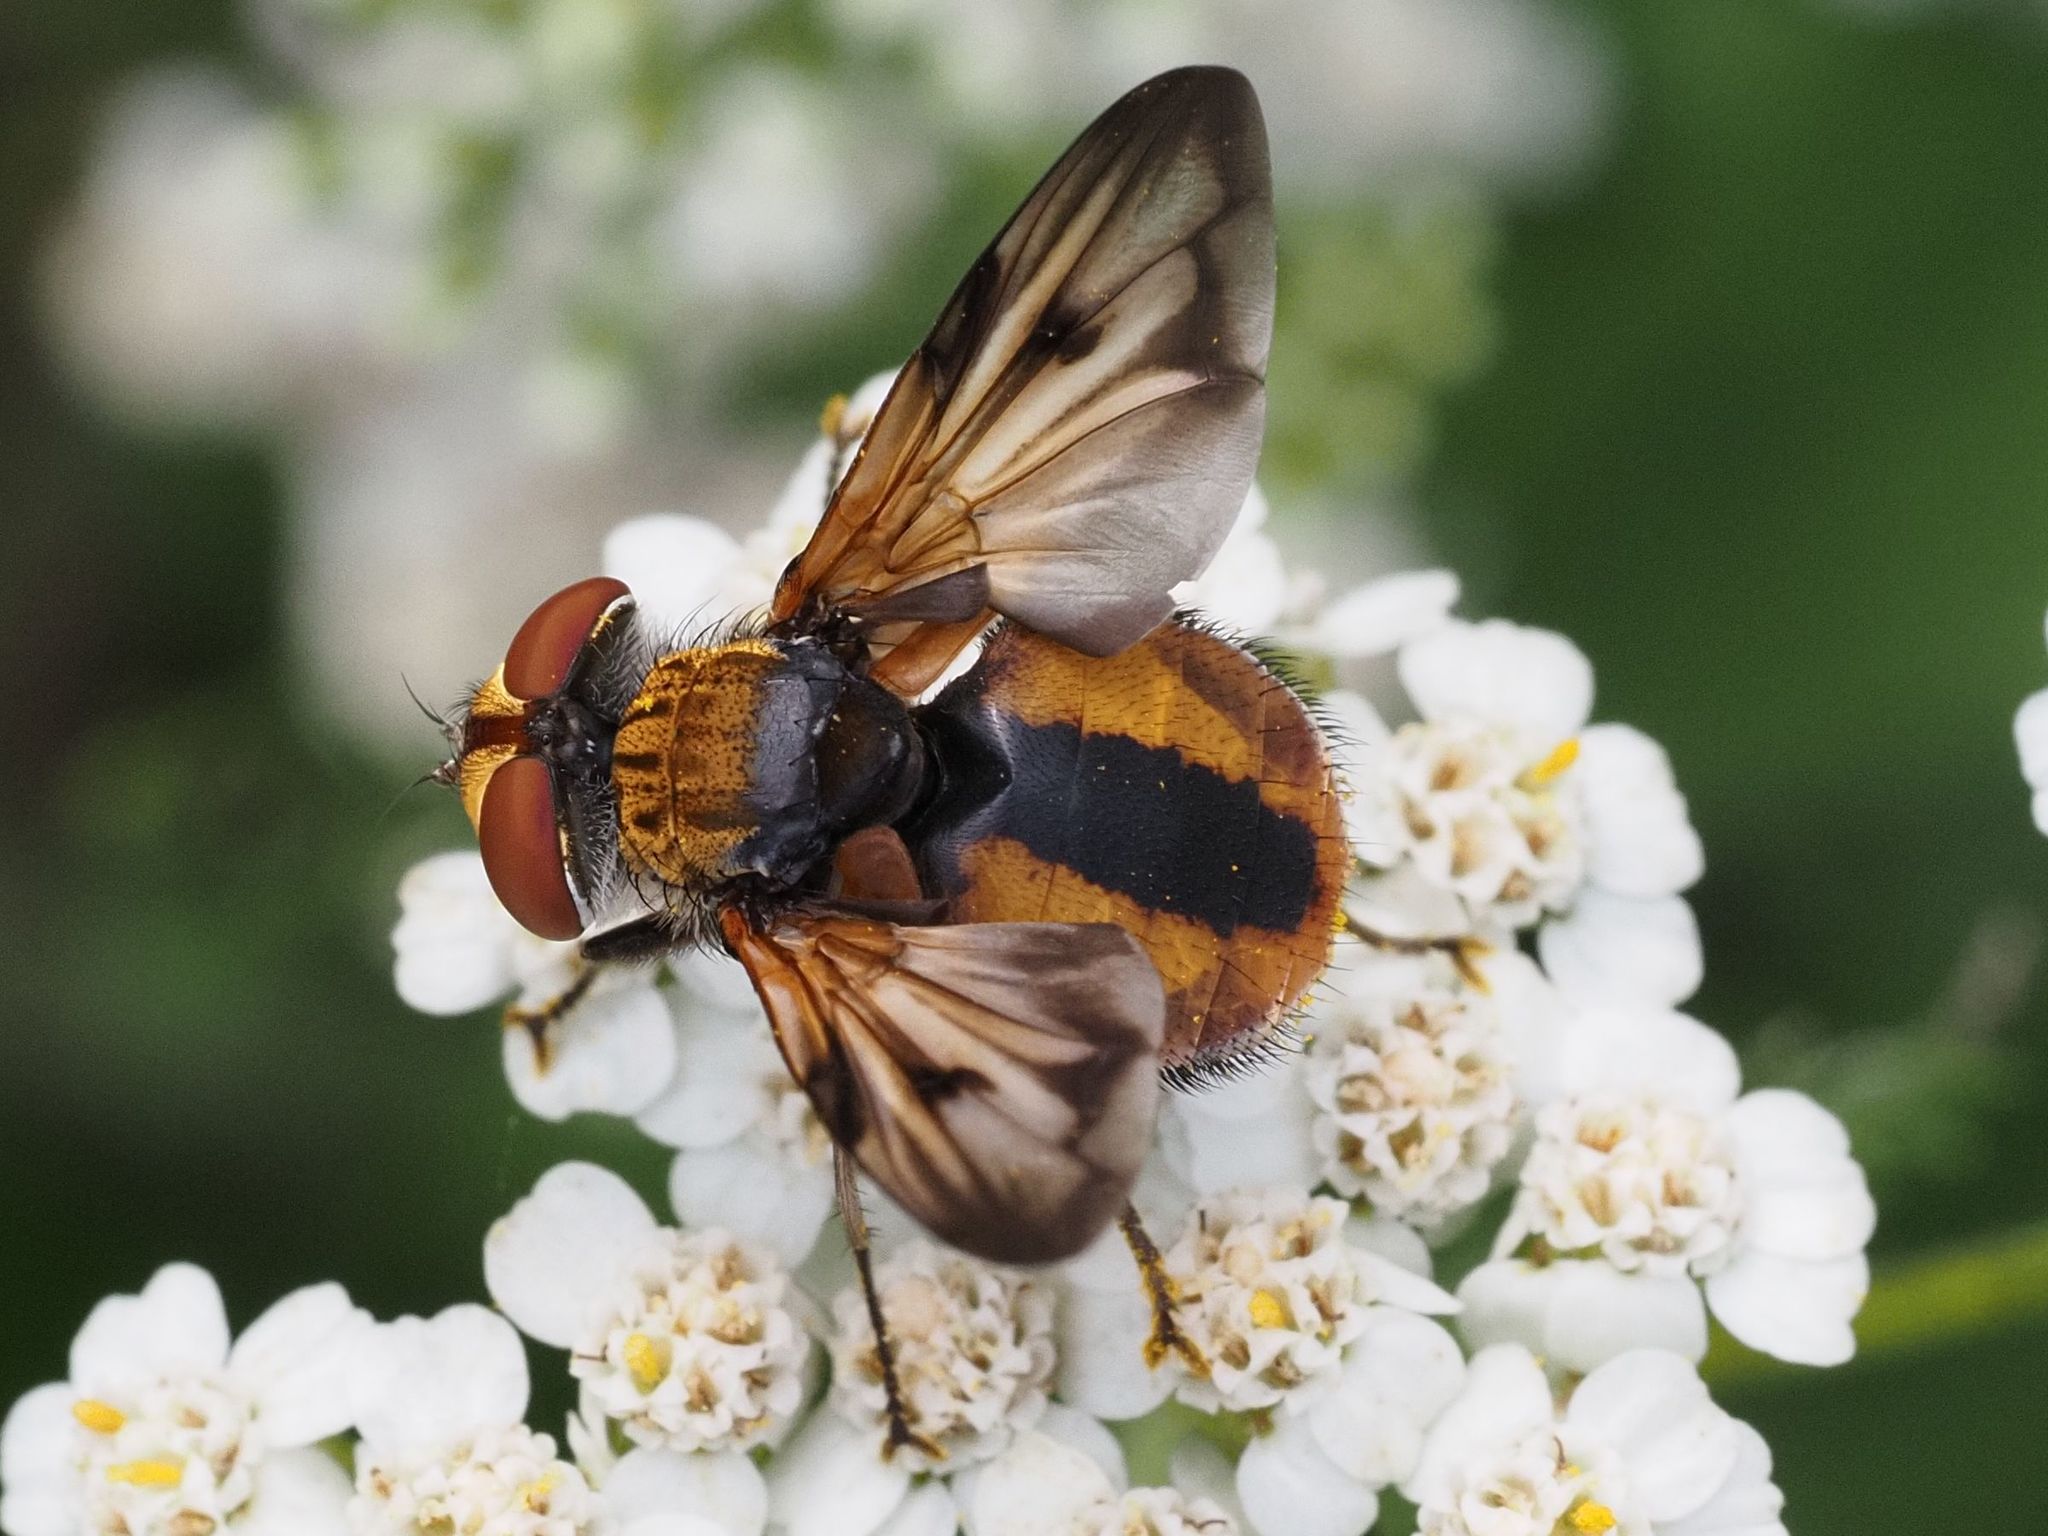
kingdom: Animalia
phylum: Arthropoda
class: Insecta
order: Diptera
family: Tachinidae
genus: Ectophasia
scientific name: Ectophasia crassipennis
